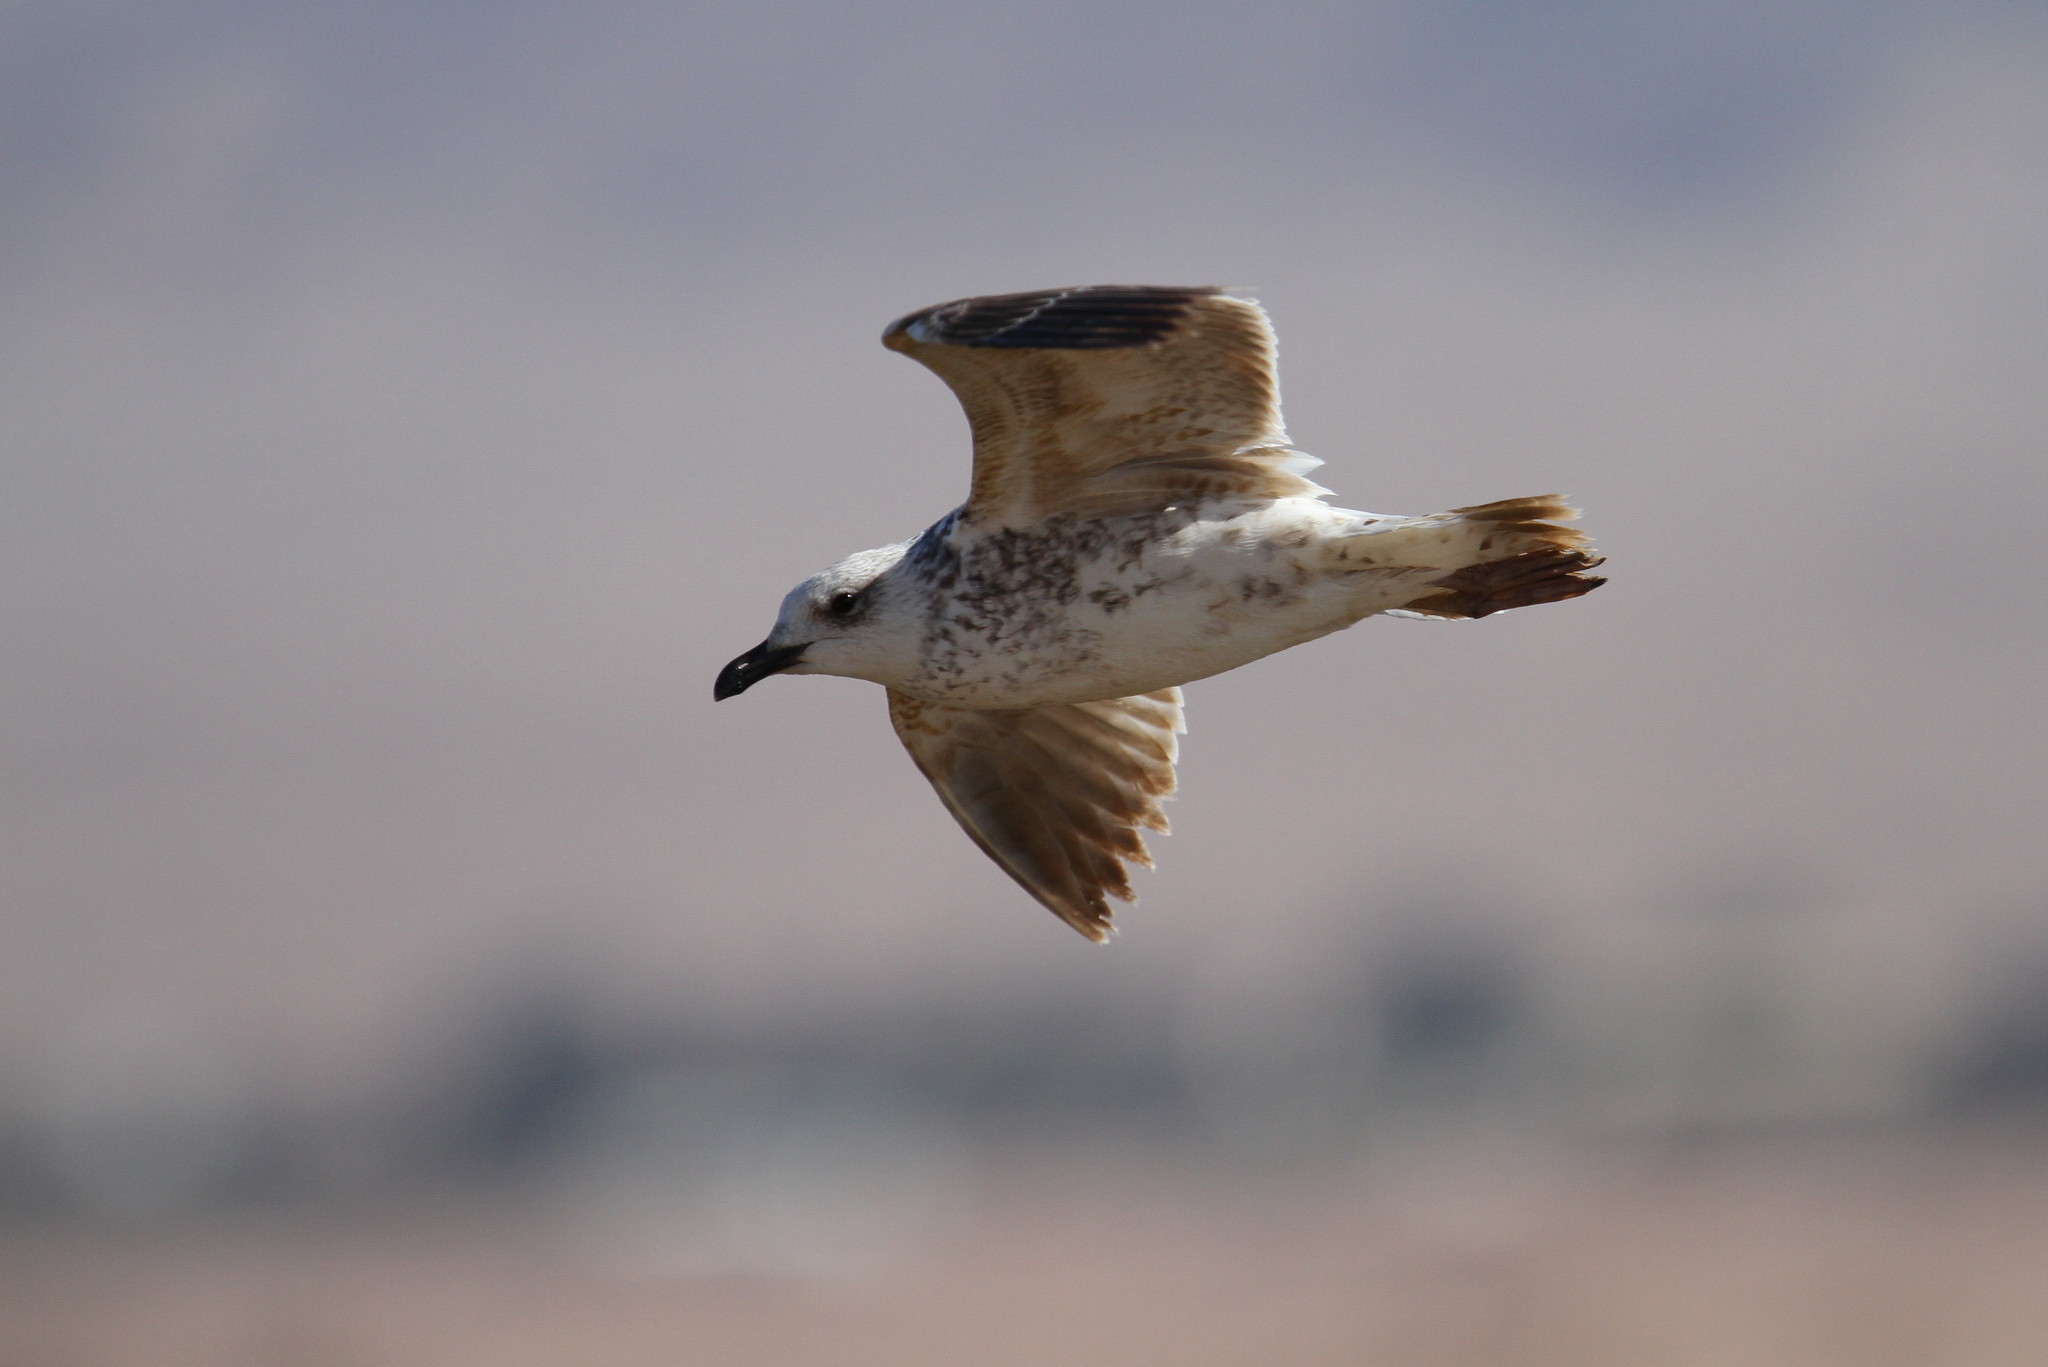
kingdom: Animalia
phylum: Chordata
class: Aves
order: Charadriiformes
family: Laridae
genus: Larus
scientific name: Larus armenicus
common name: Armenian gull
